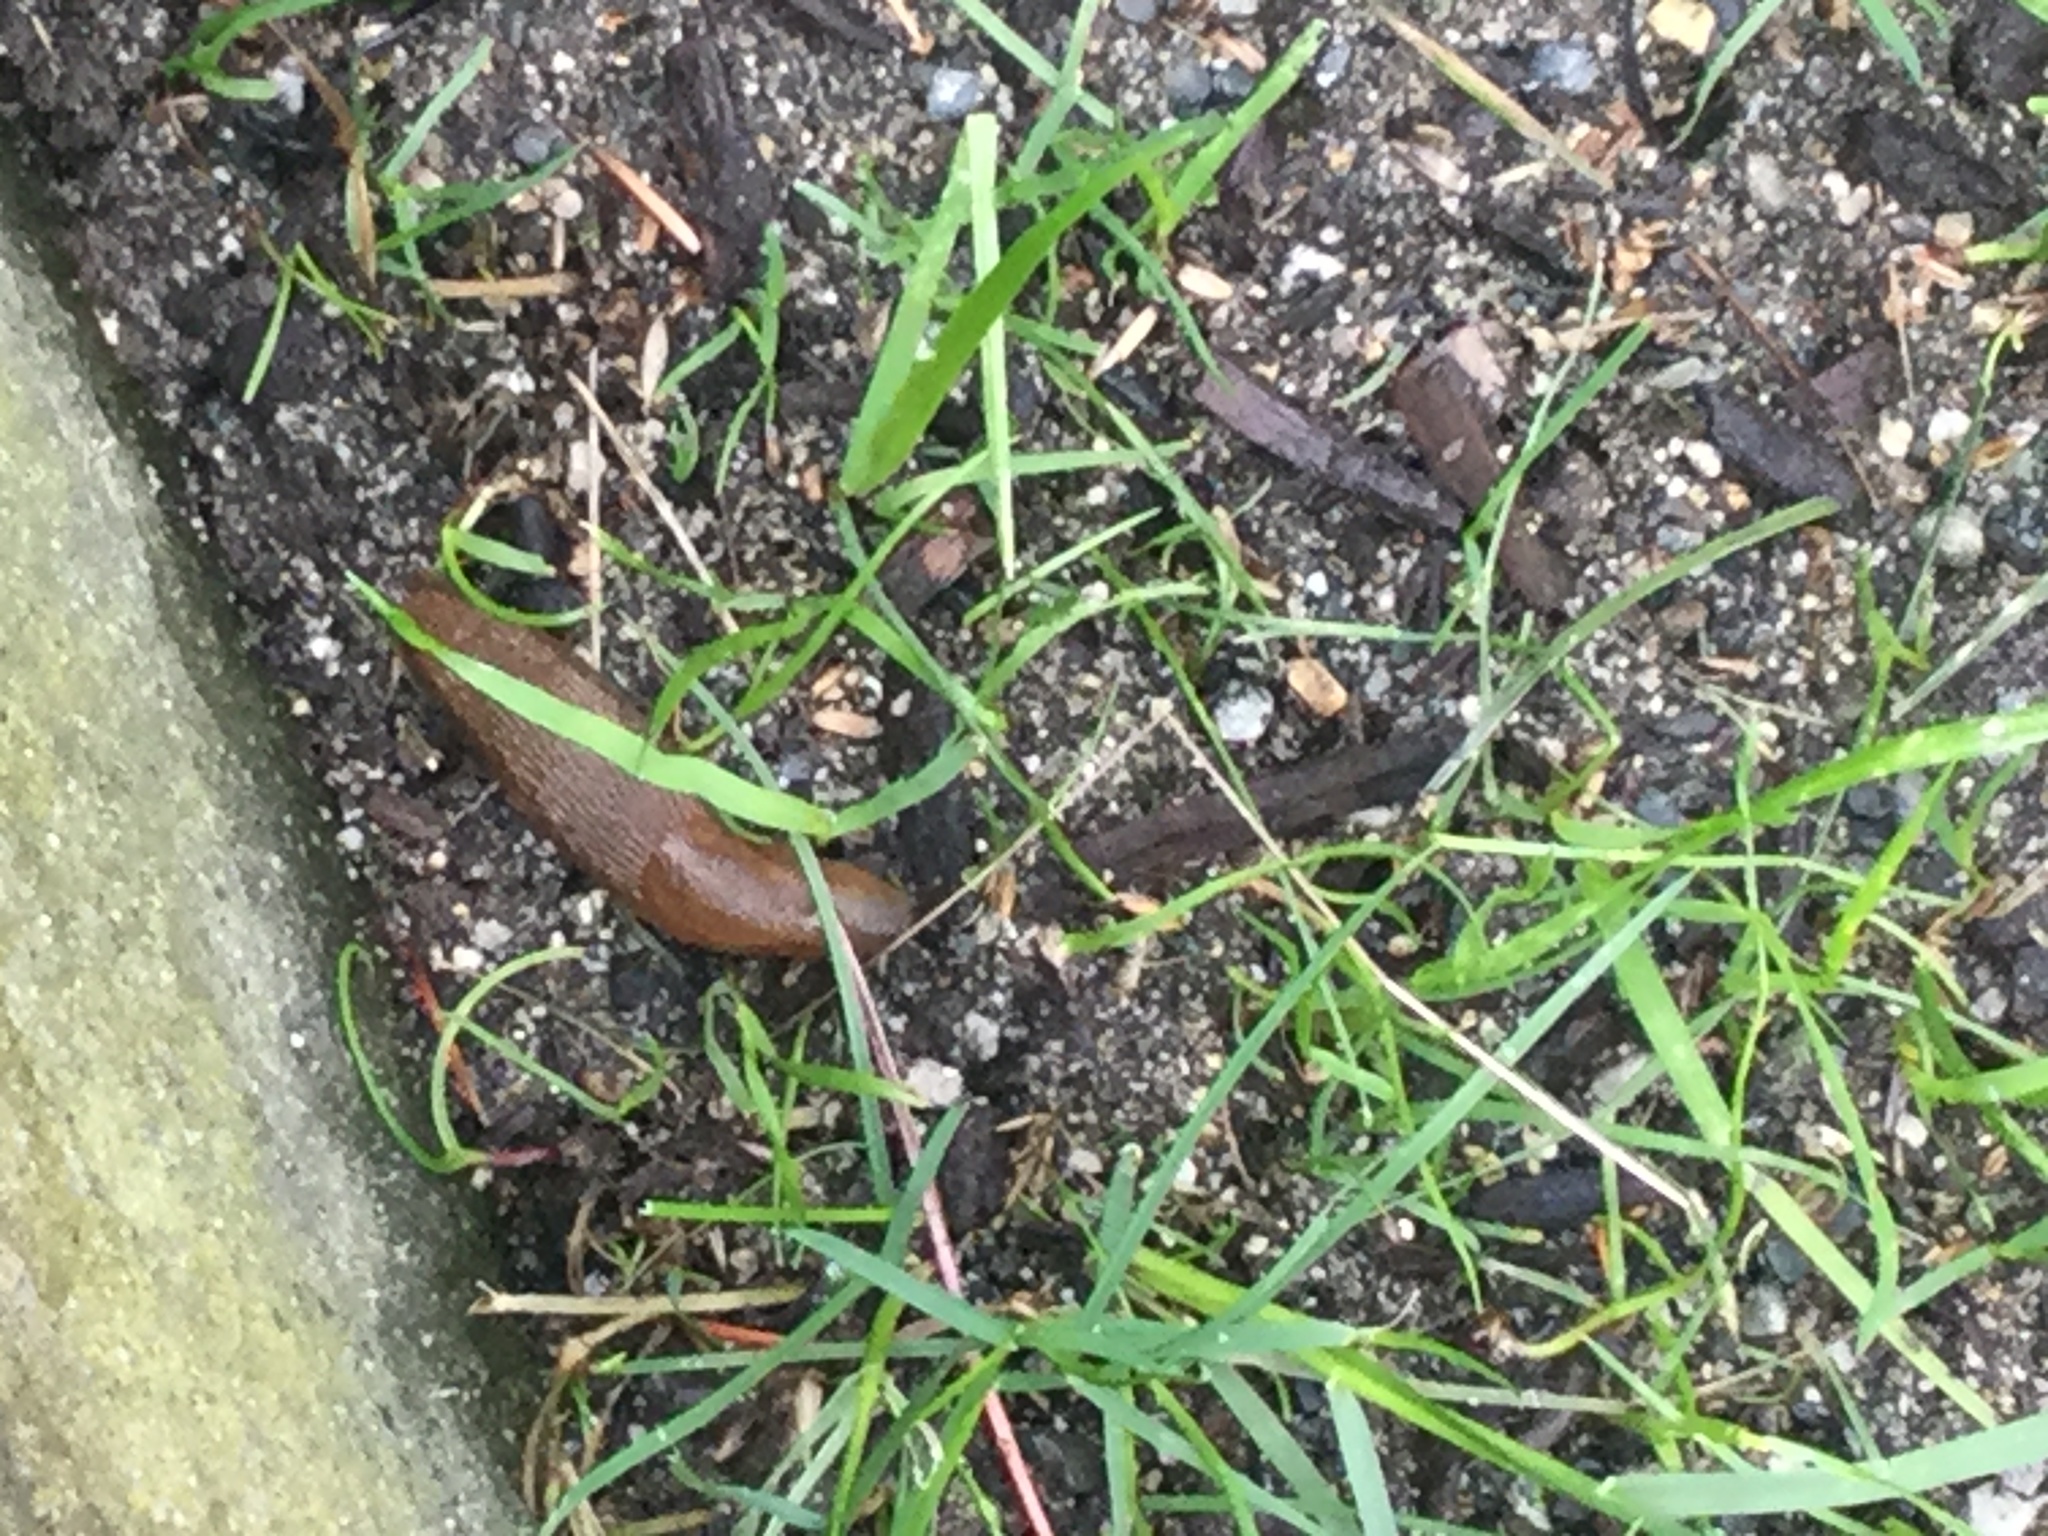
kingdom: Animalia
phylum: Mollusca
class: Gastropoda
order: Stylommatophora
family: Arionidae
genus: Arion
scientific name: Arion rufus
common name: Chocolate arion
